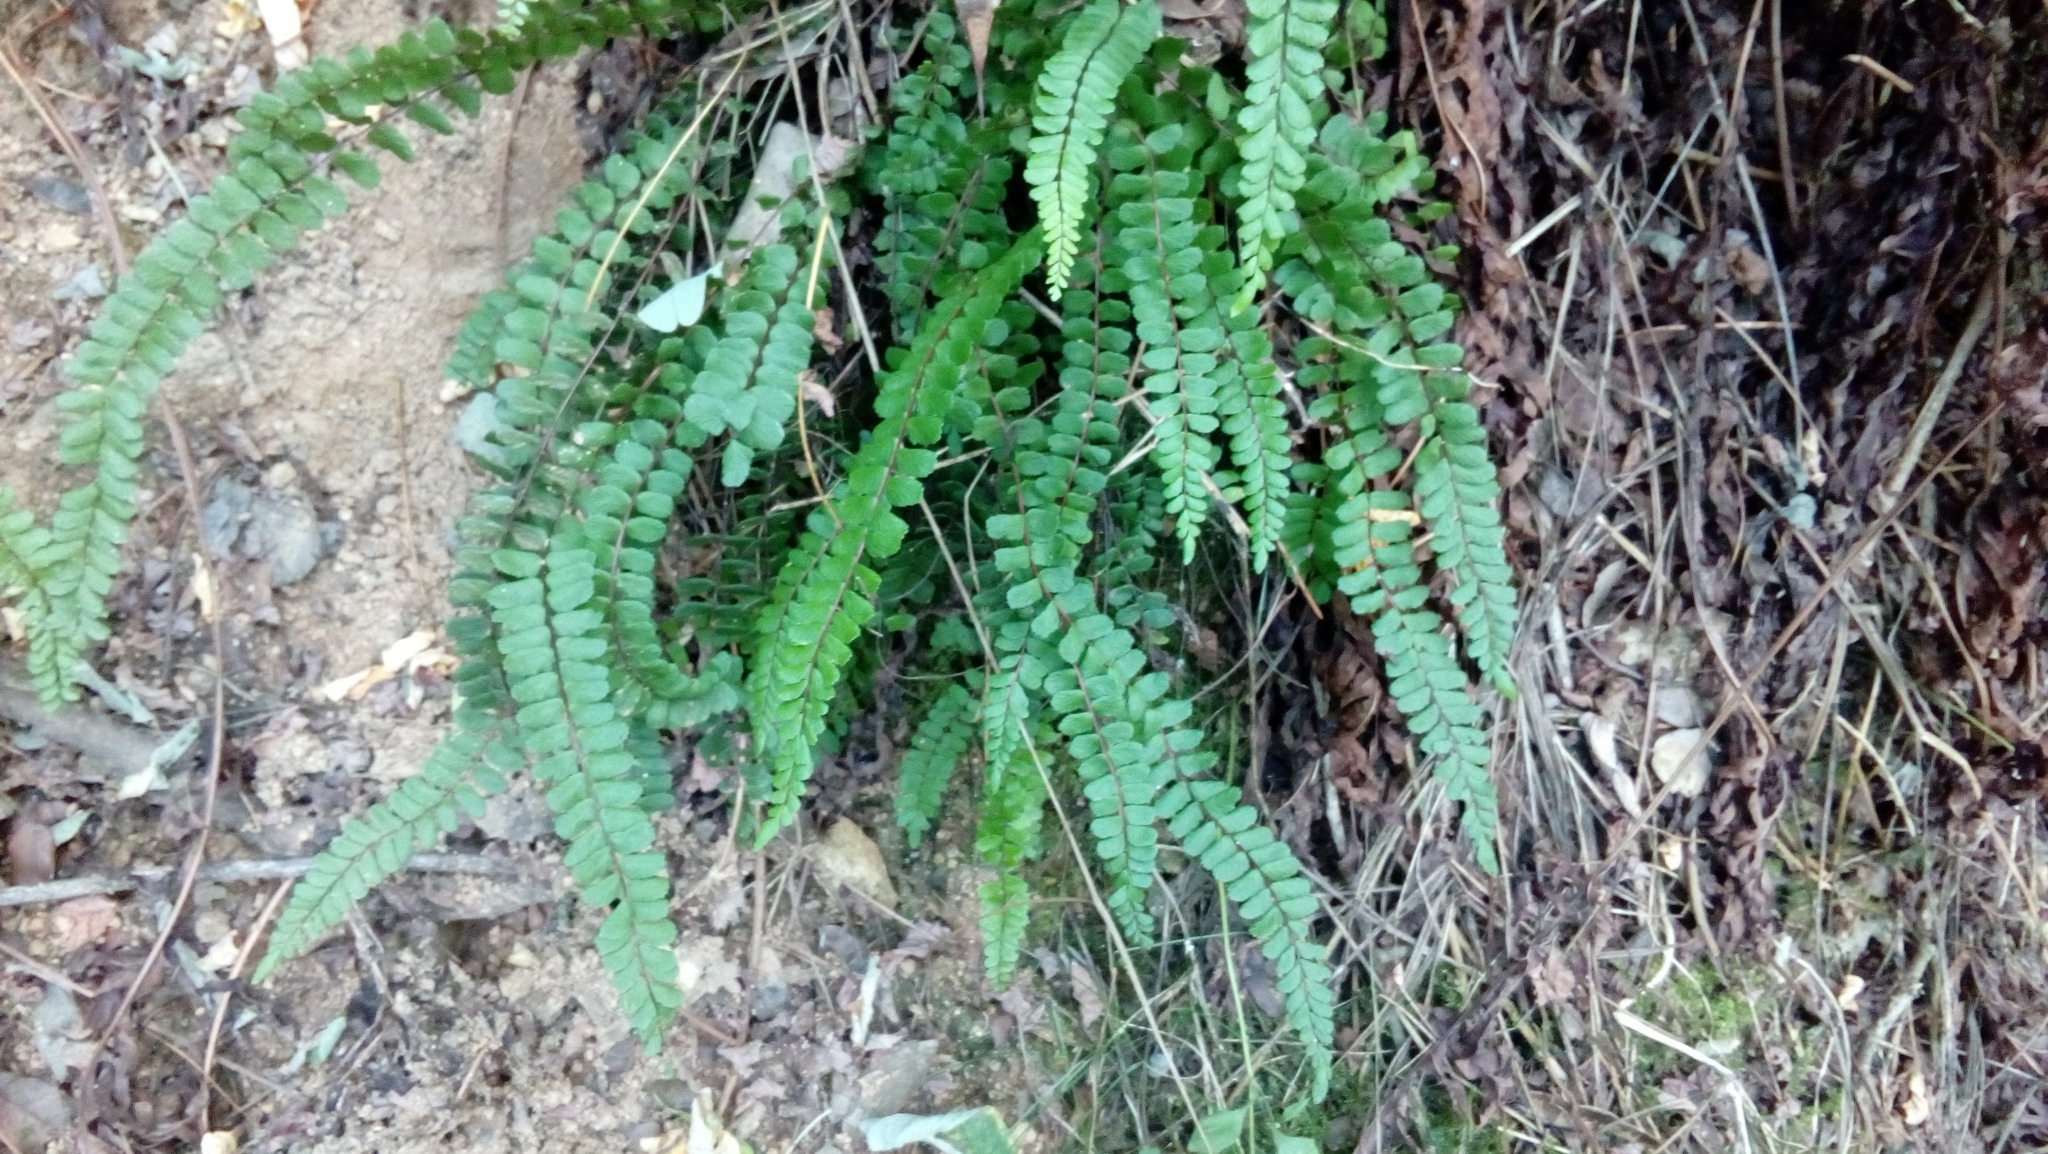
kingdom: Plantae
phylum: Tracheophyta
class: Polypodiopsida
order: Polypodiales
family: Aspleniaceae
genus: Asplenium
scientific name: Asplenium trichomanes
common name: Maidenhair spleenwort
